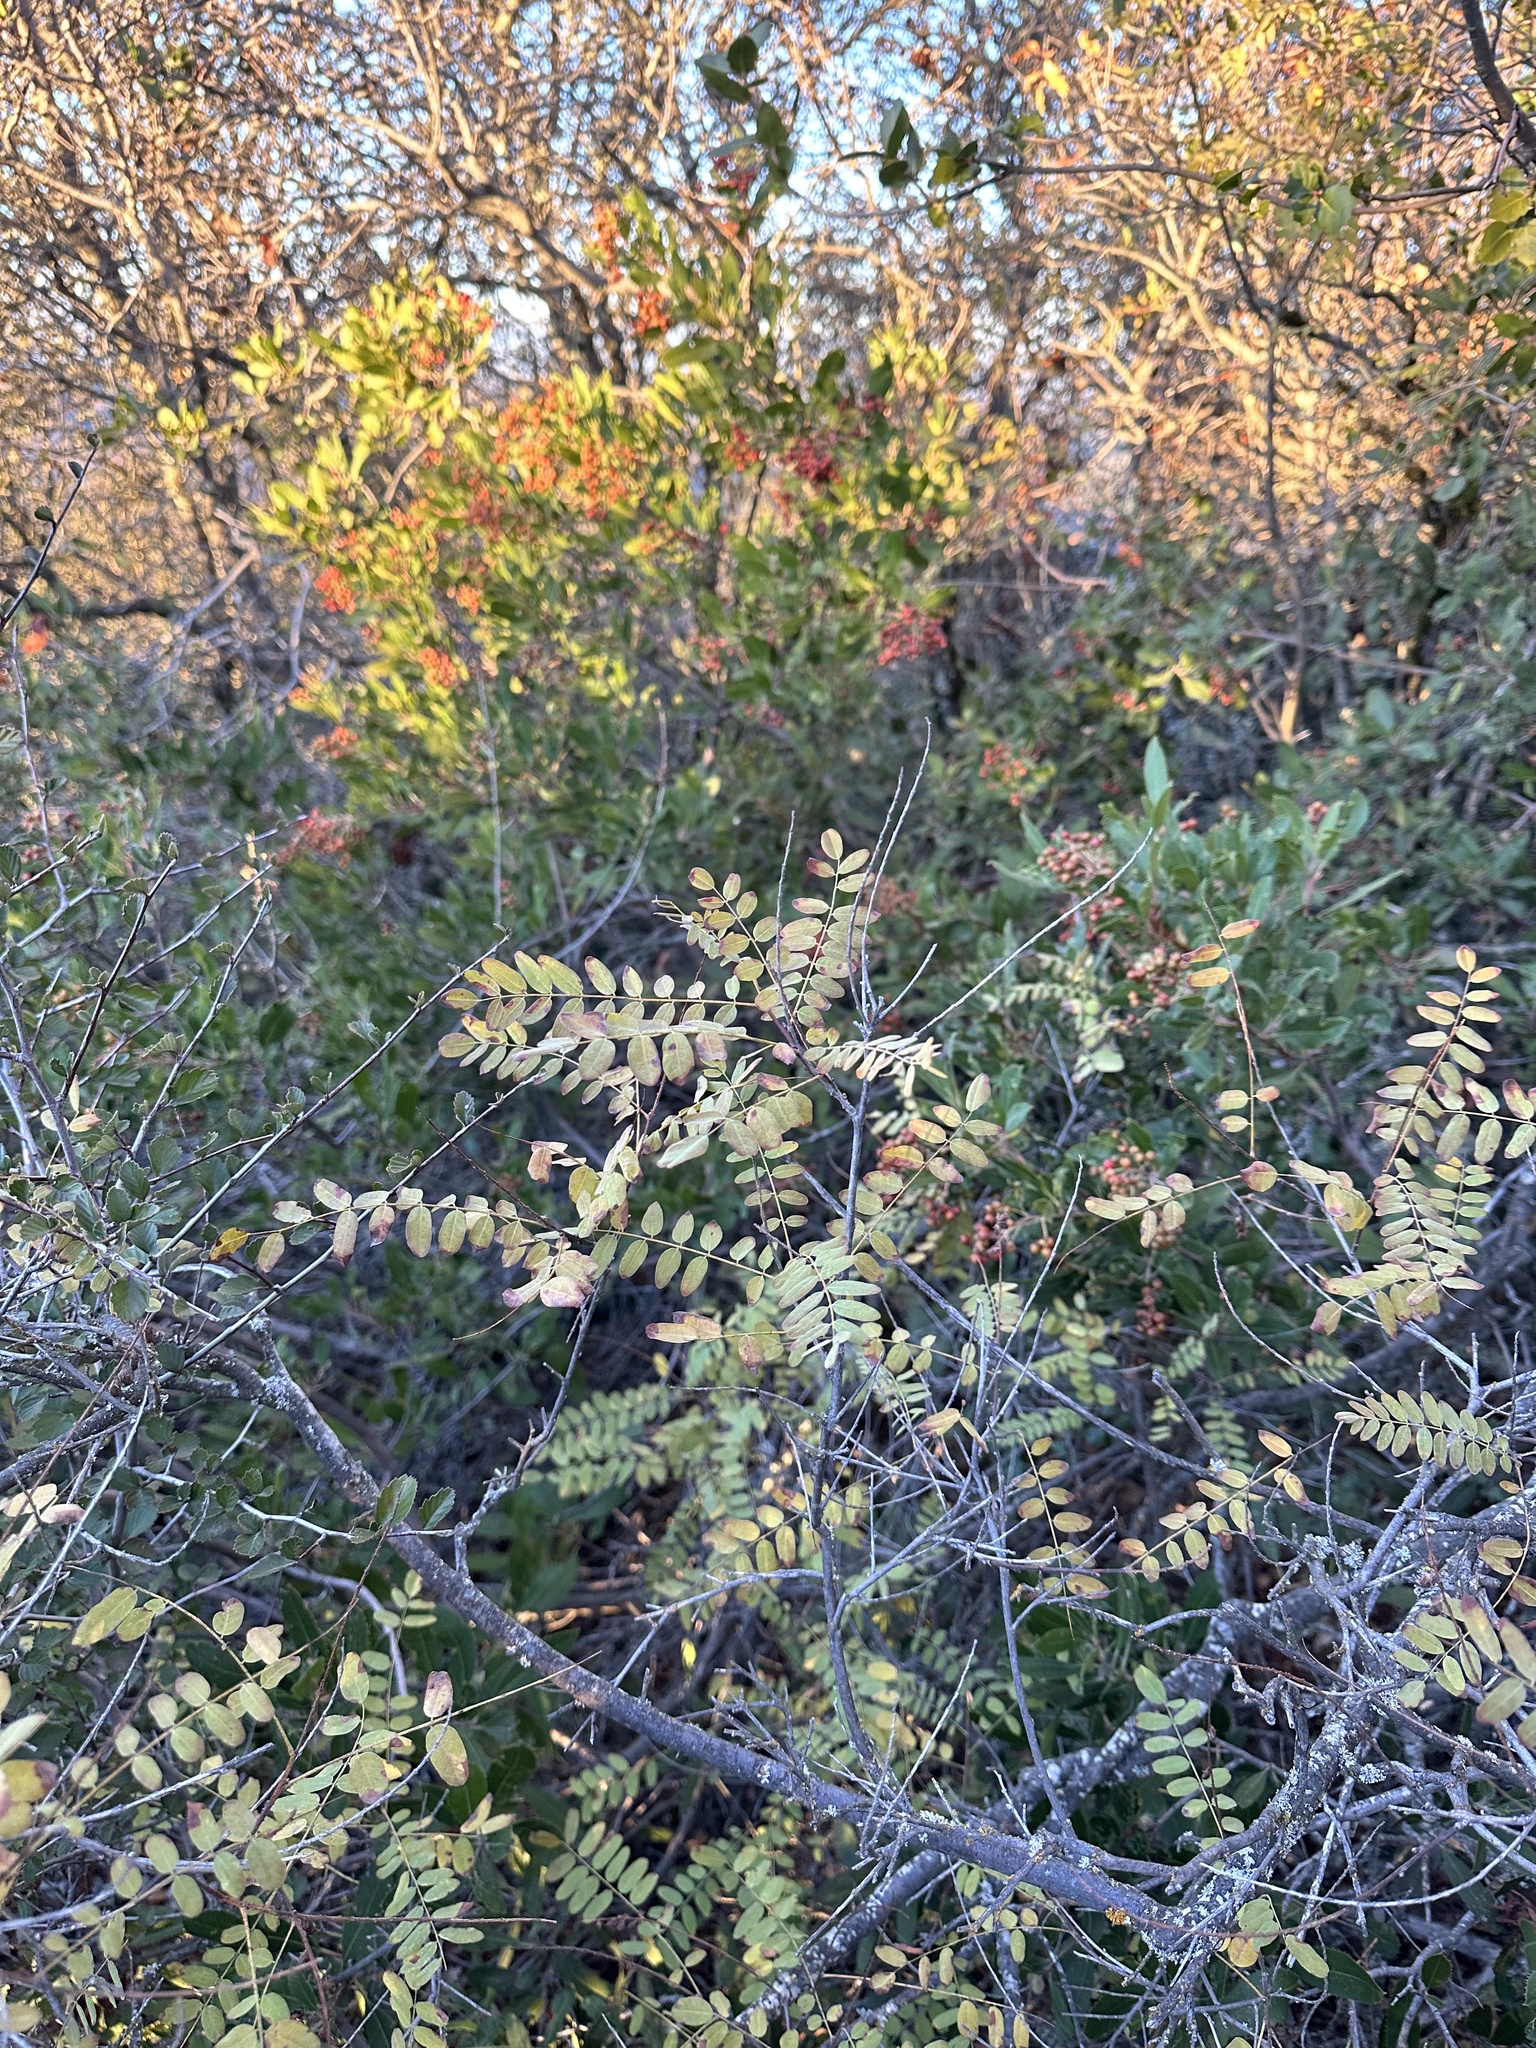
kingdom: Plantae
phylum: Tracheophyta
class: Magnoliopsida
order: Fabales
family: Fabaceae
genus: Amorpha
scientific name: Amorpha californica
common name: California indigobush
